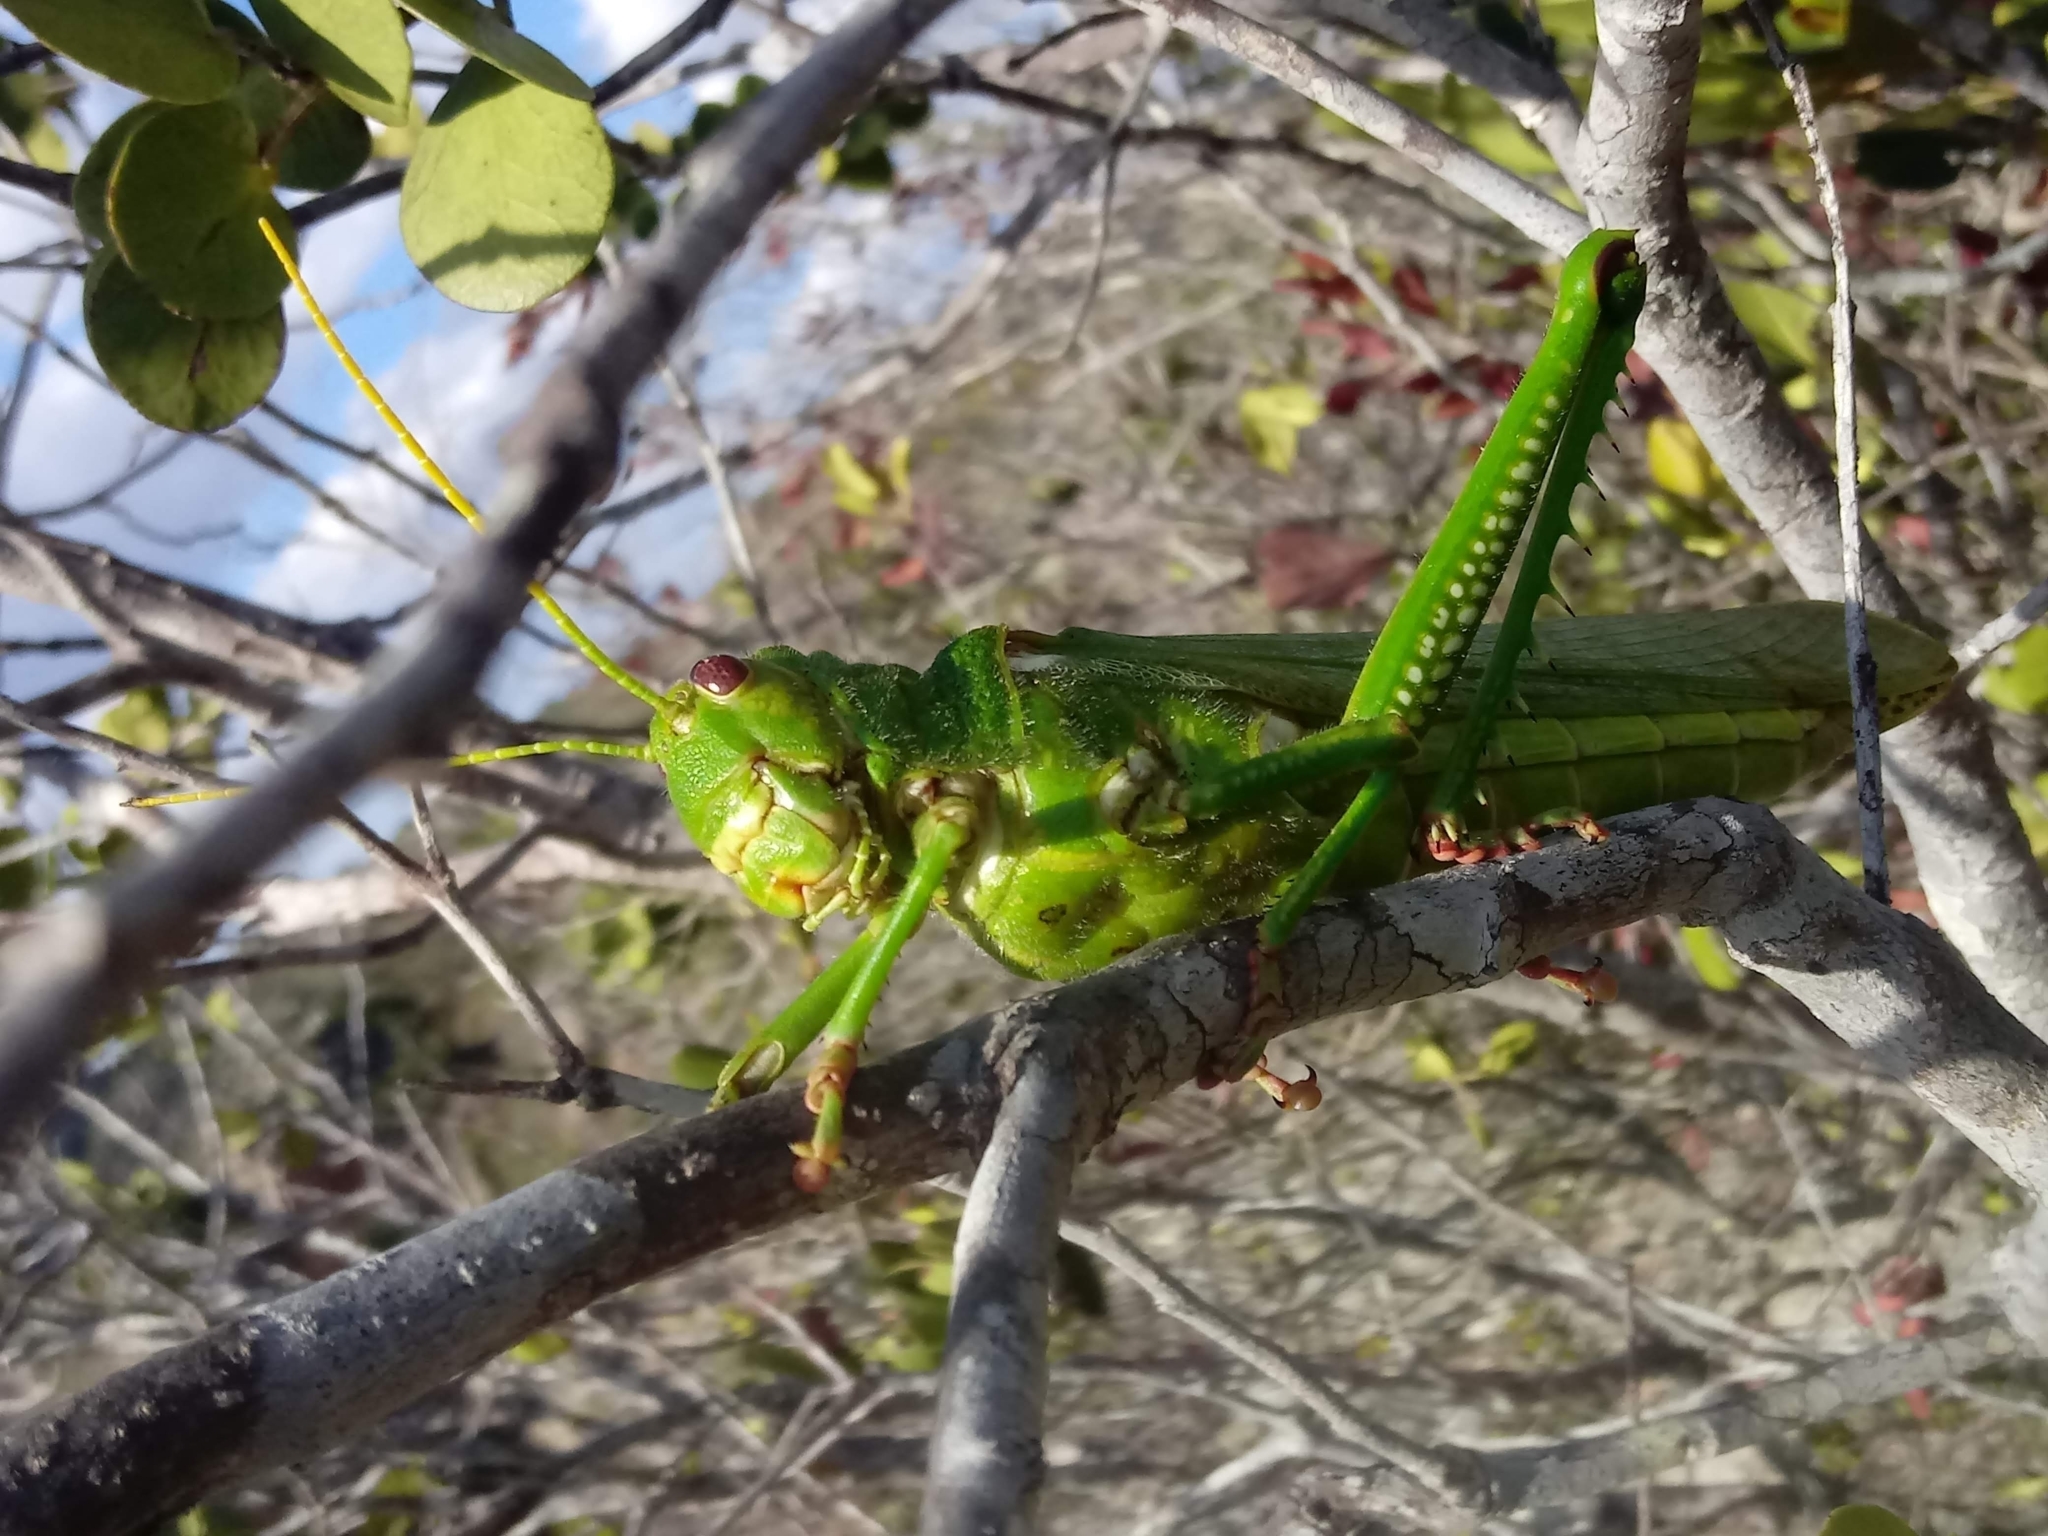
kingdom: Animalia
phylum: Arthropoda
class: Insecta
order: Orthoptera
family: Romaleidae
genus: Tropidacris
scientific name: Tropidacris collaris
